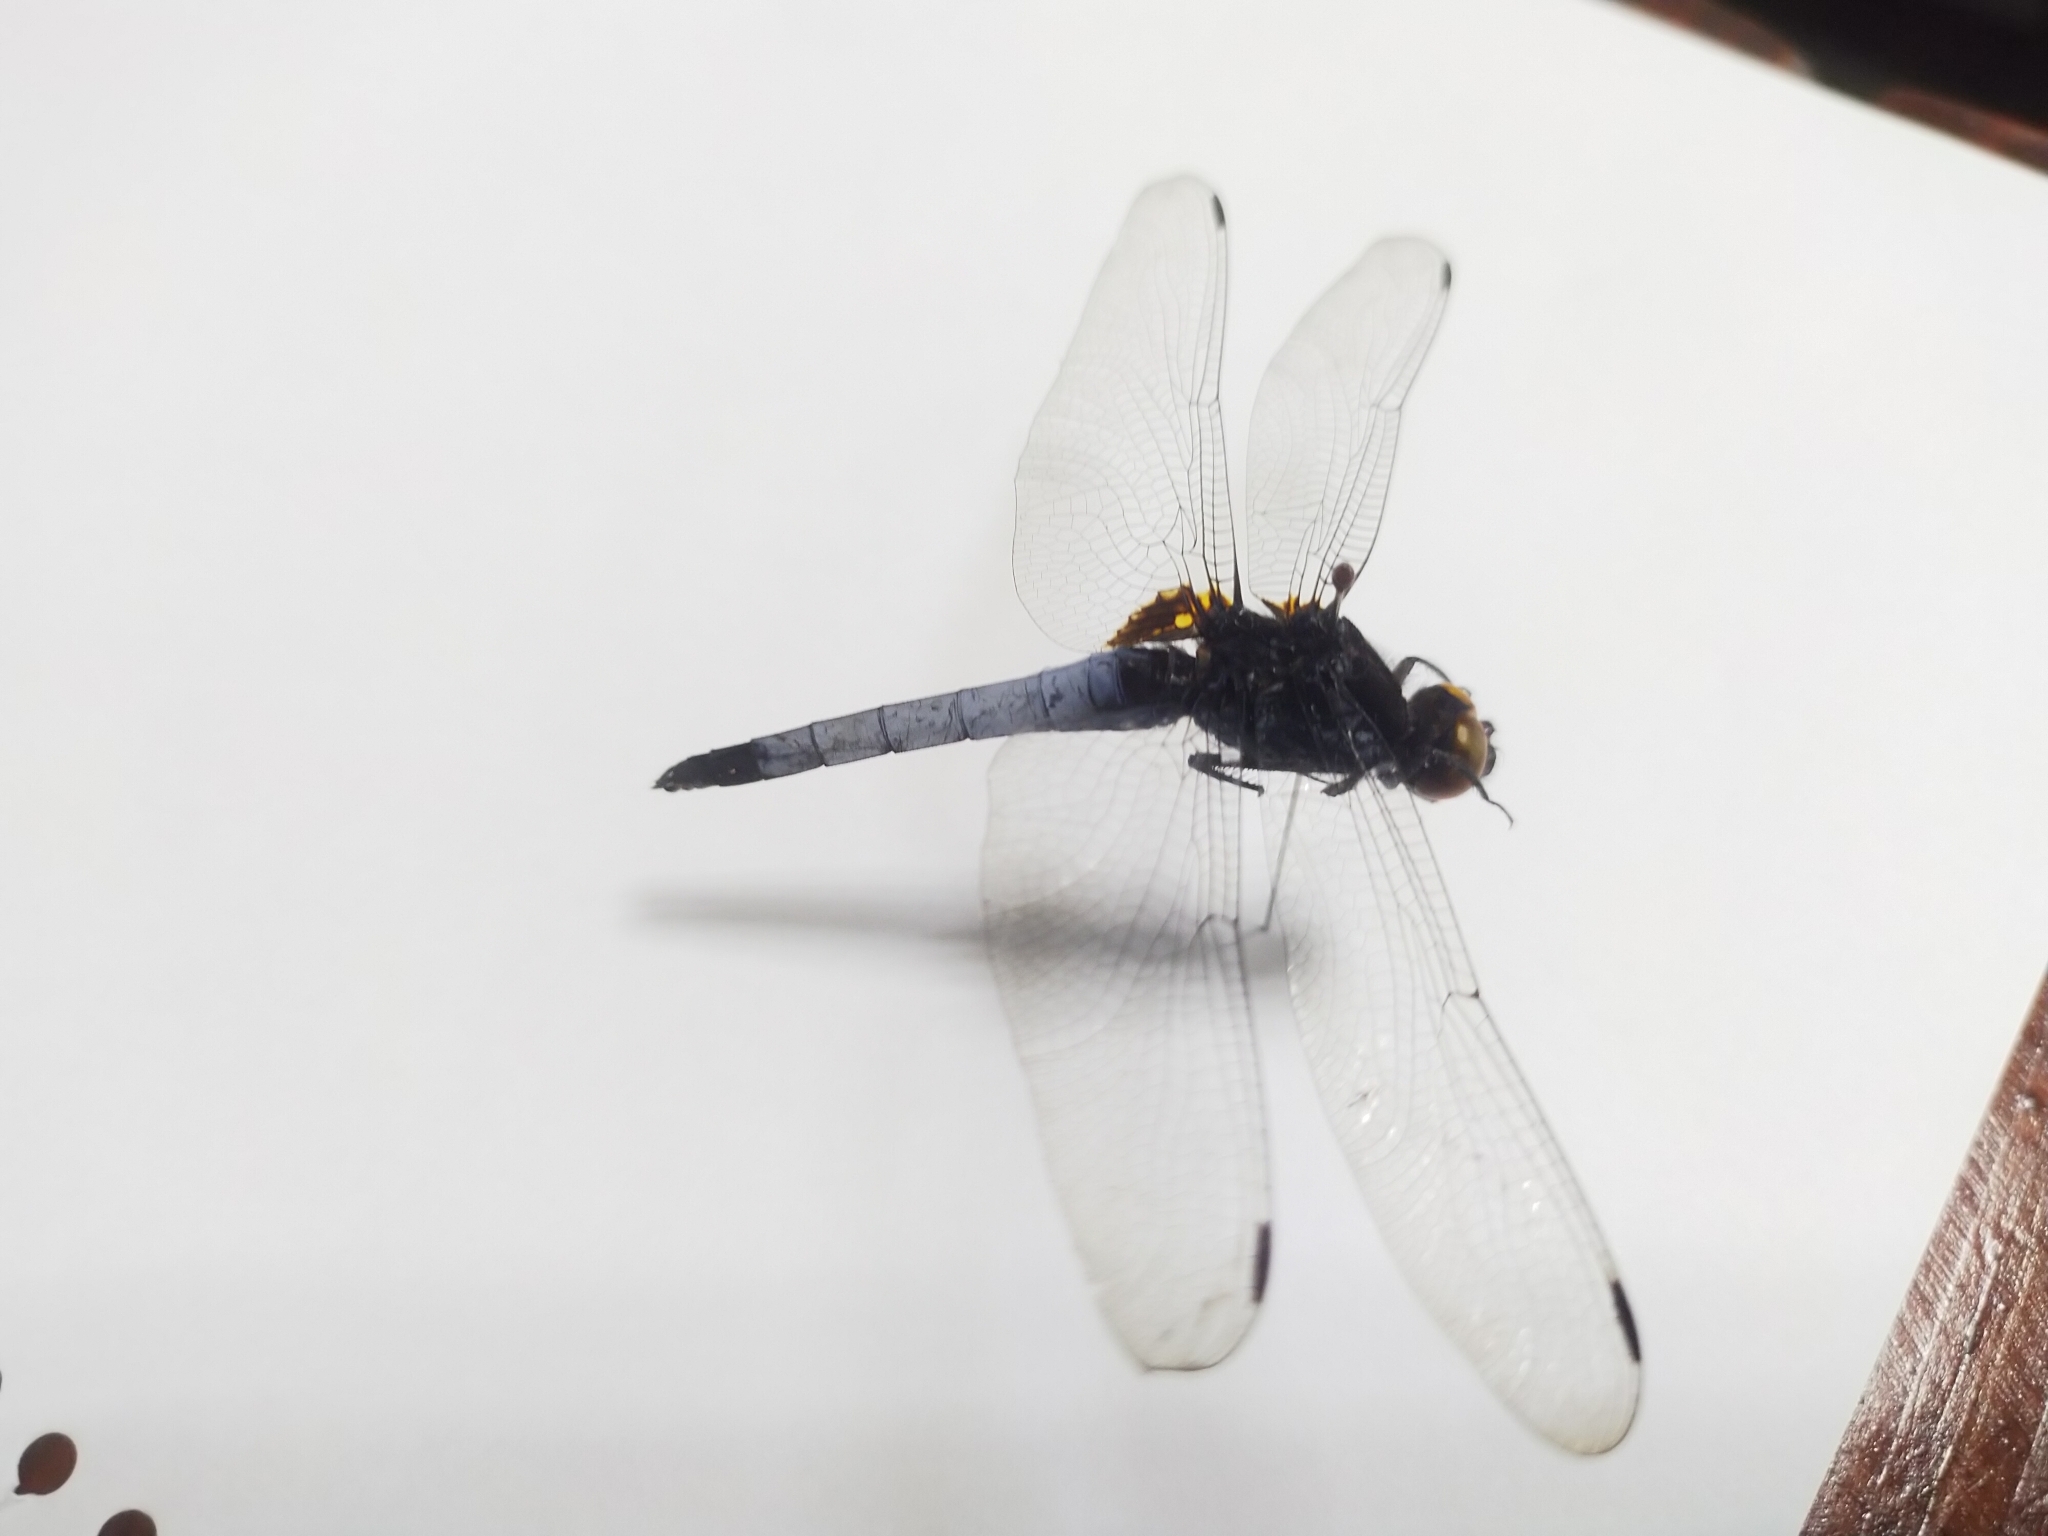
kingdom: Animalia
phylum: Arthropoda
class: Insecta
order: Odonata
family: Libellulidae
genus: Orthetrum
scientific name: Orthetrum triangulare
